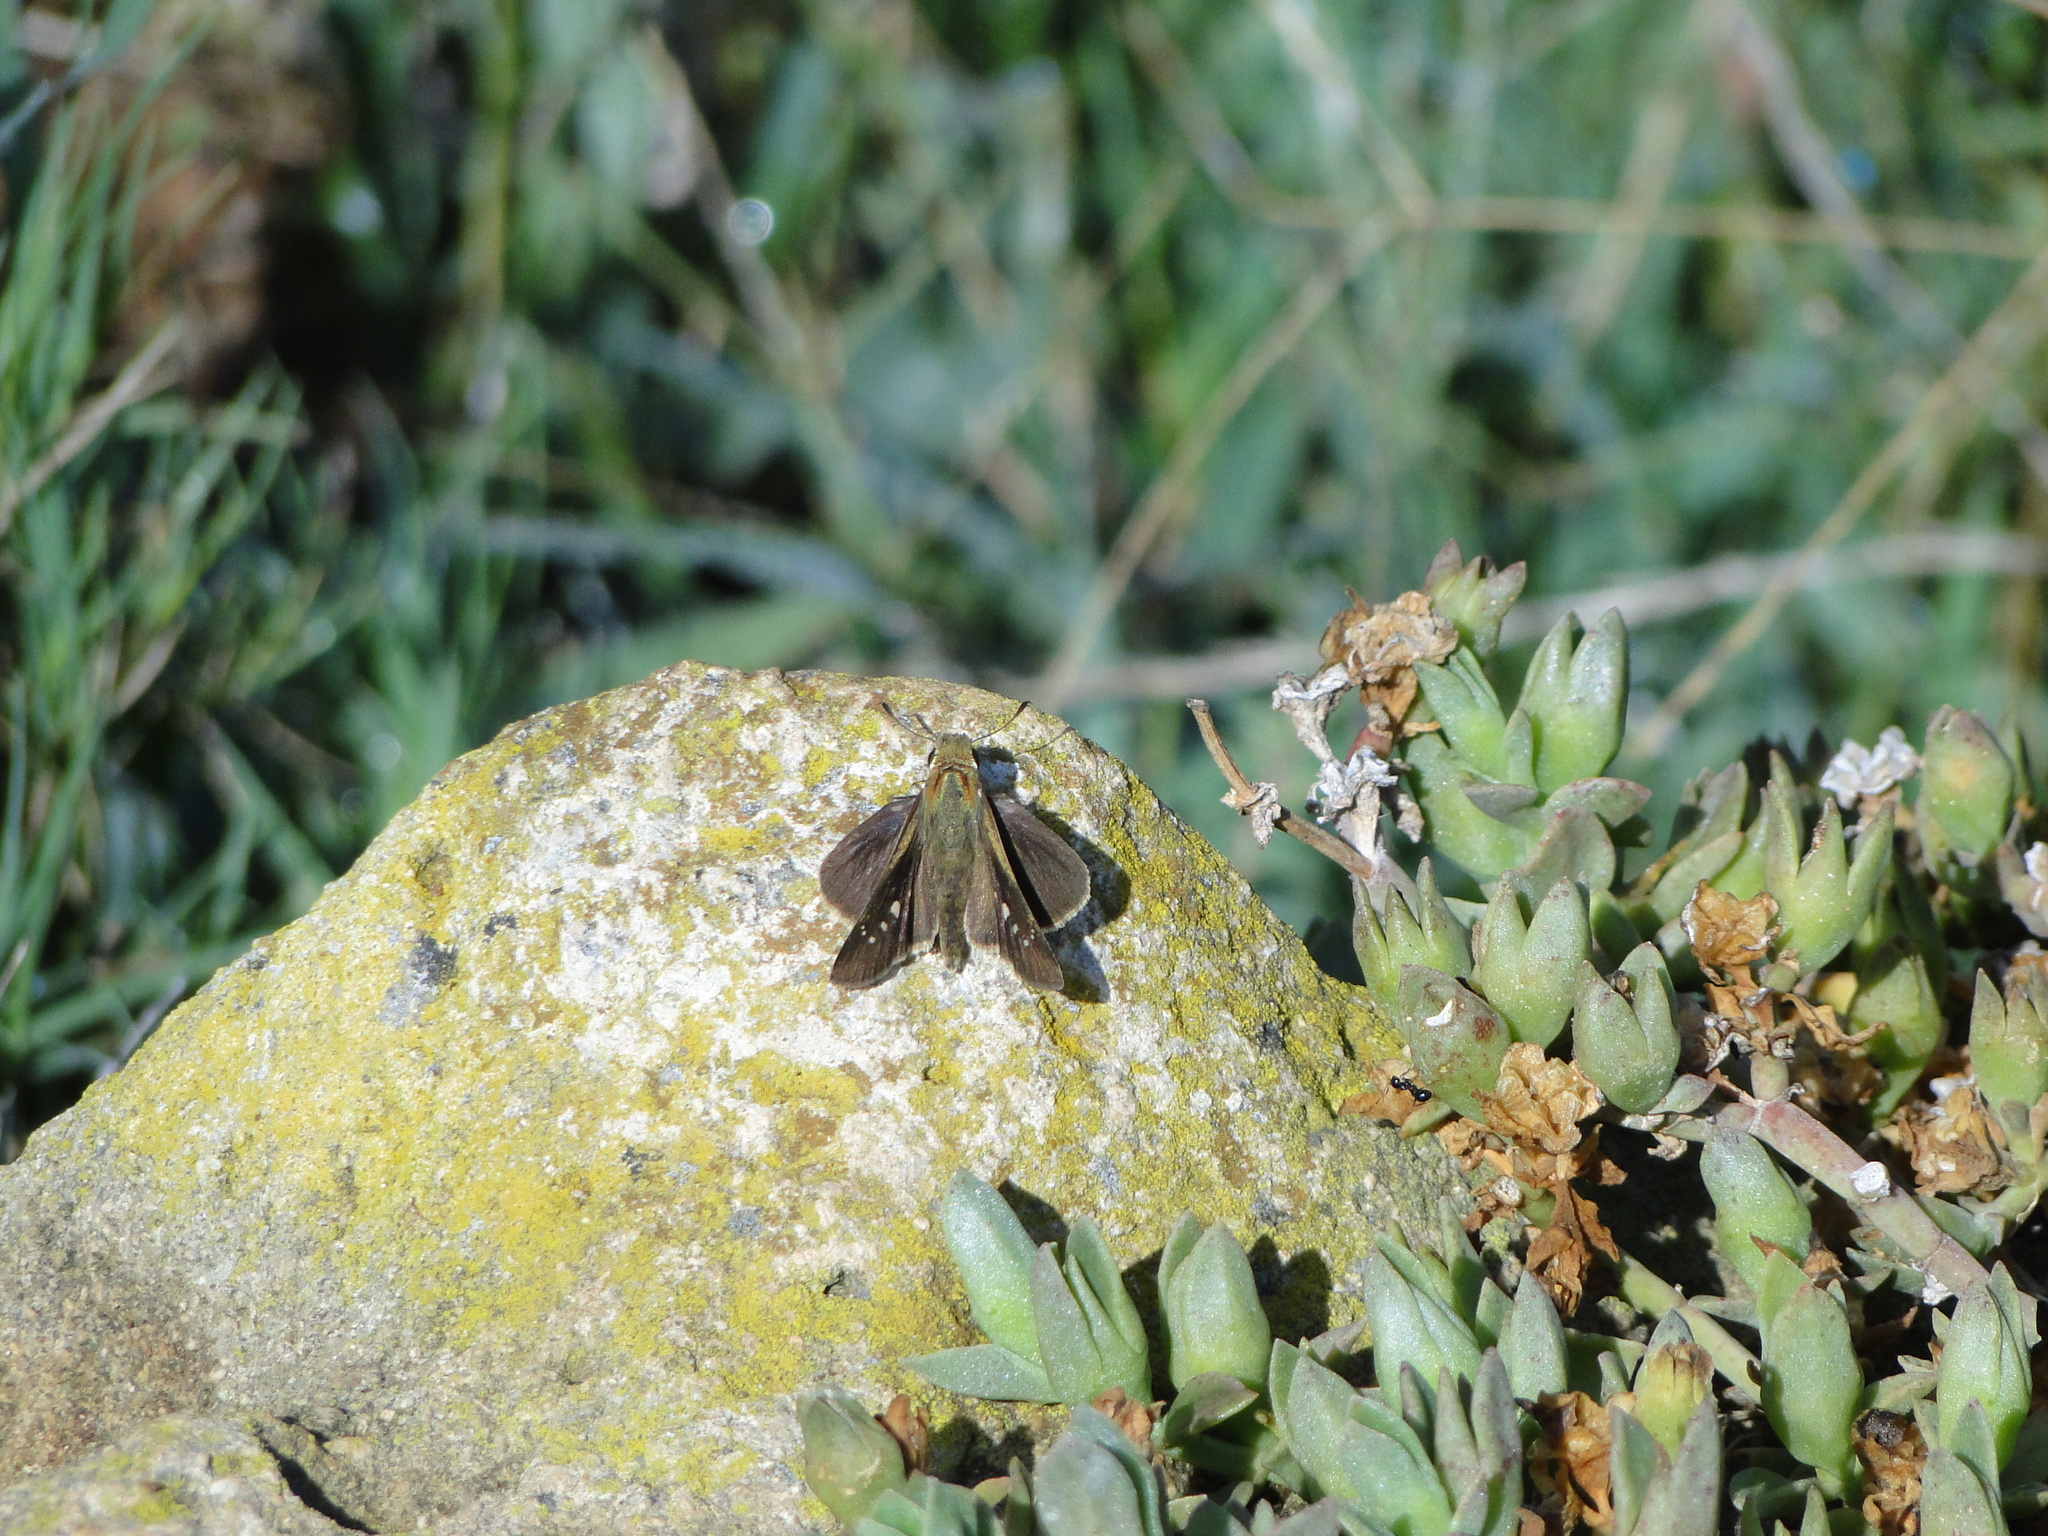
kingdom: Animalia
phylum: Arthropoda
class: Insecta
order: Lepidoptera
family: Hesperiidae
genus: Borbo
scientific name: Borbo borbonica
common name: Olive-haired swift
